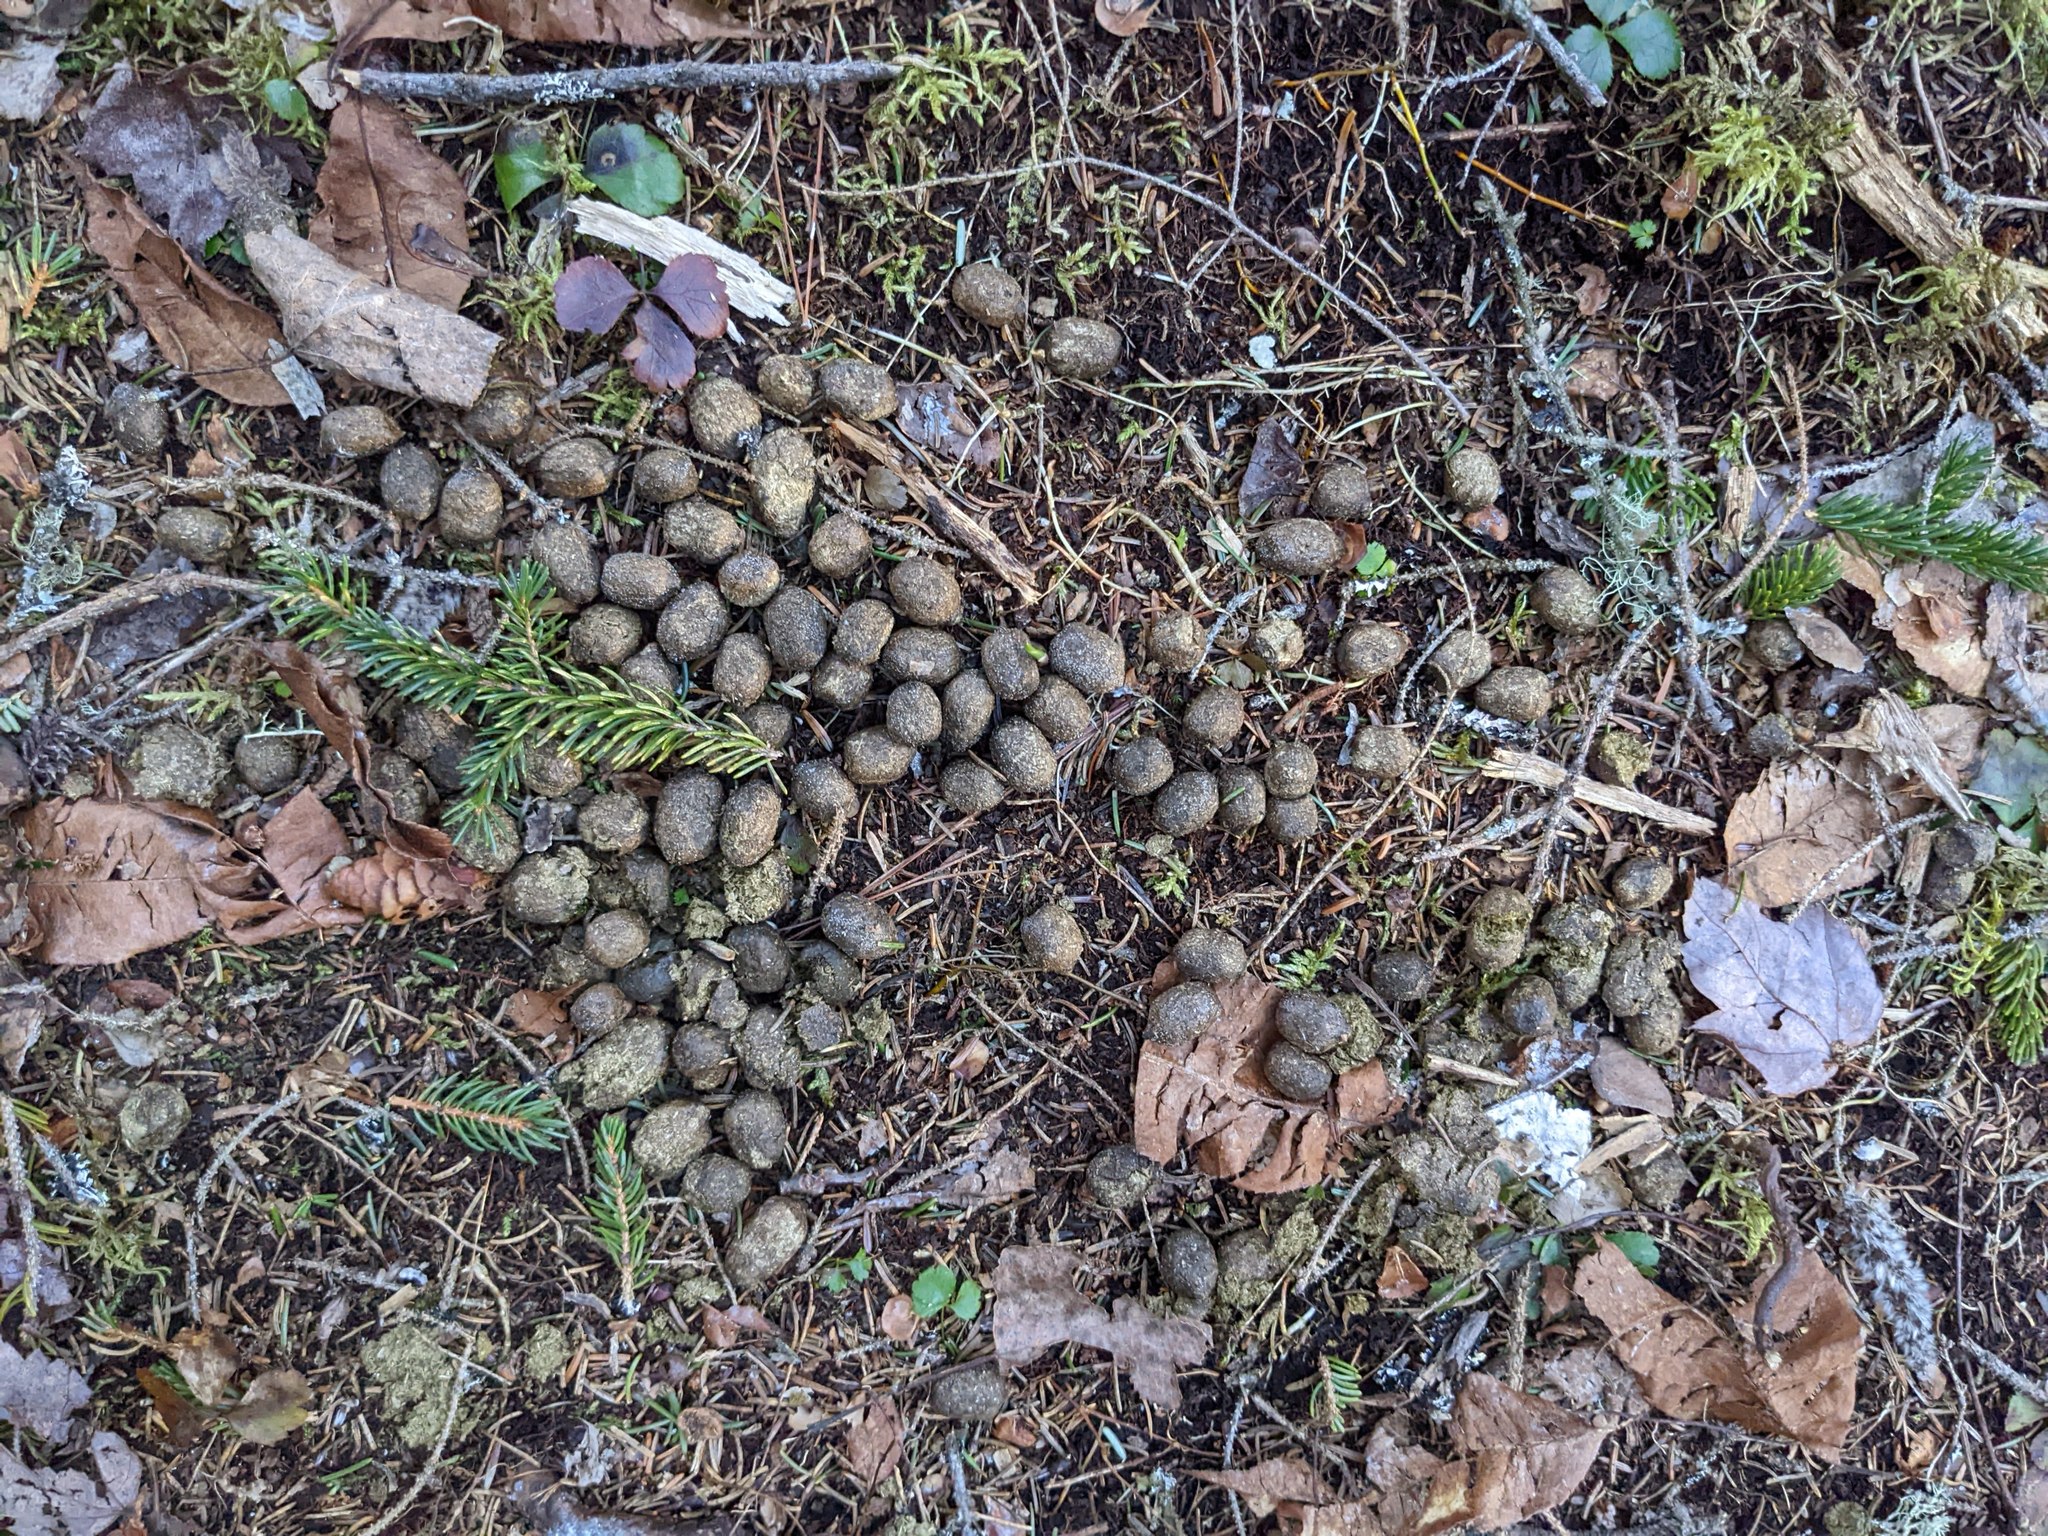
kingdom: Animalia
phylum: Chordata
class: Mammalia
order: Artiodactyla
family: Cervidae
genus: Odocoileus
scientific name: Odocoileus virginianus
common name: White-tailed deer
